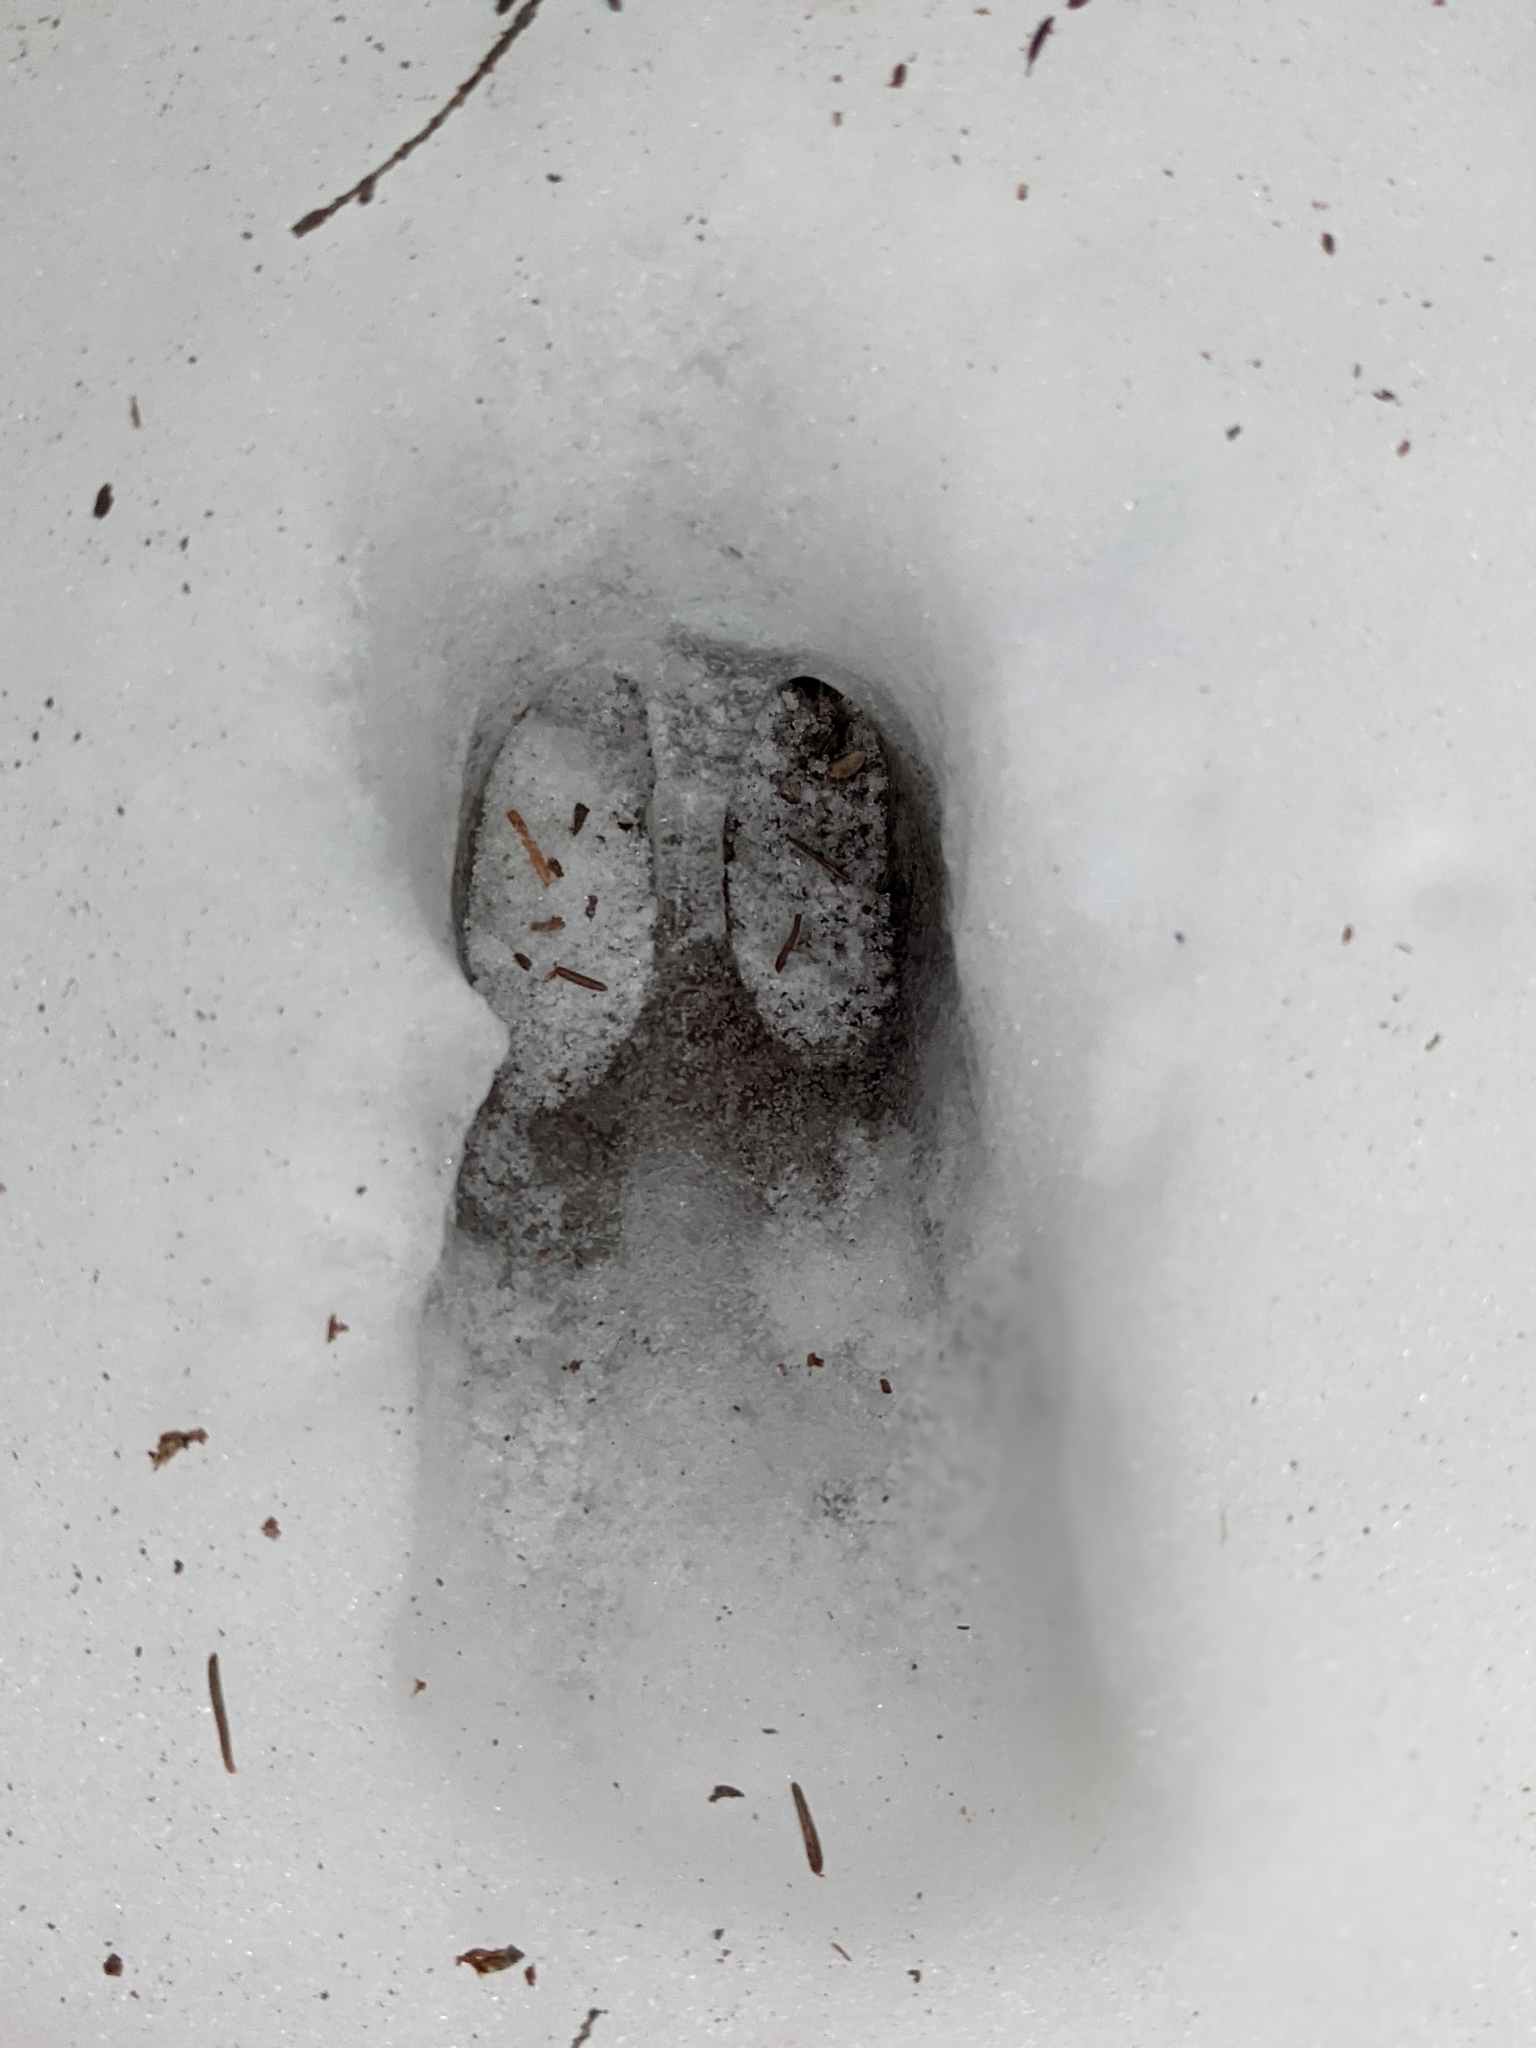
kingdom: Animalia
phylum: Chordata
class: Mammalia
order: Artiodactyla
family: Cervidae
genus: Odocoileus
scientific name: Odocoileus virginianus
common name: White-tailed deer
